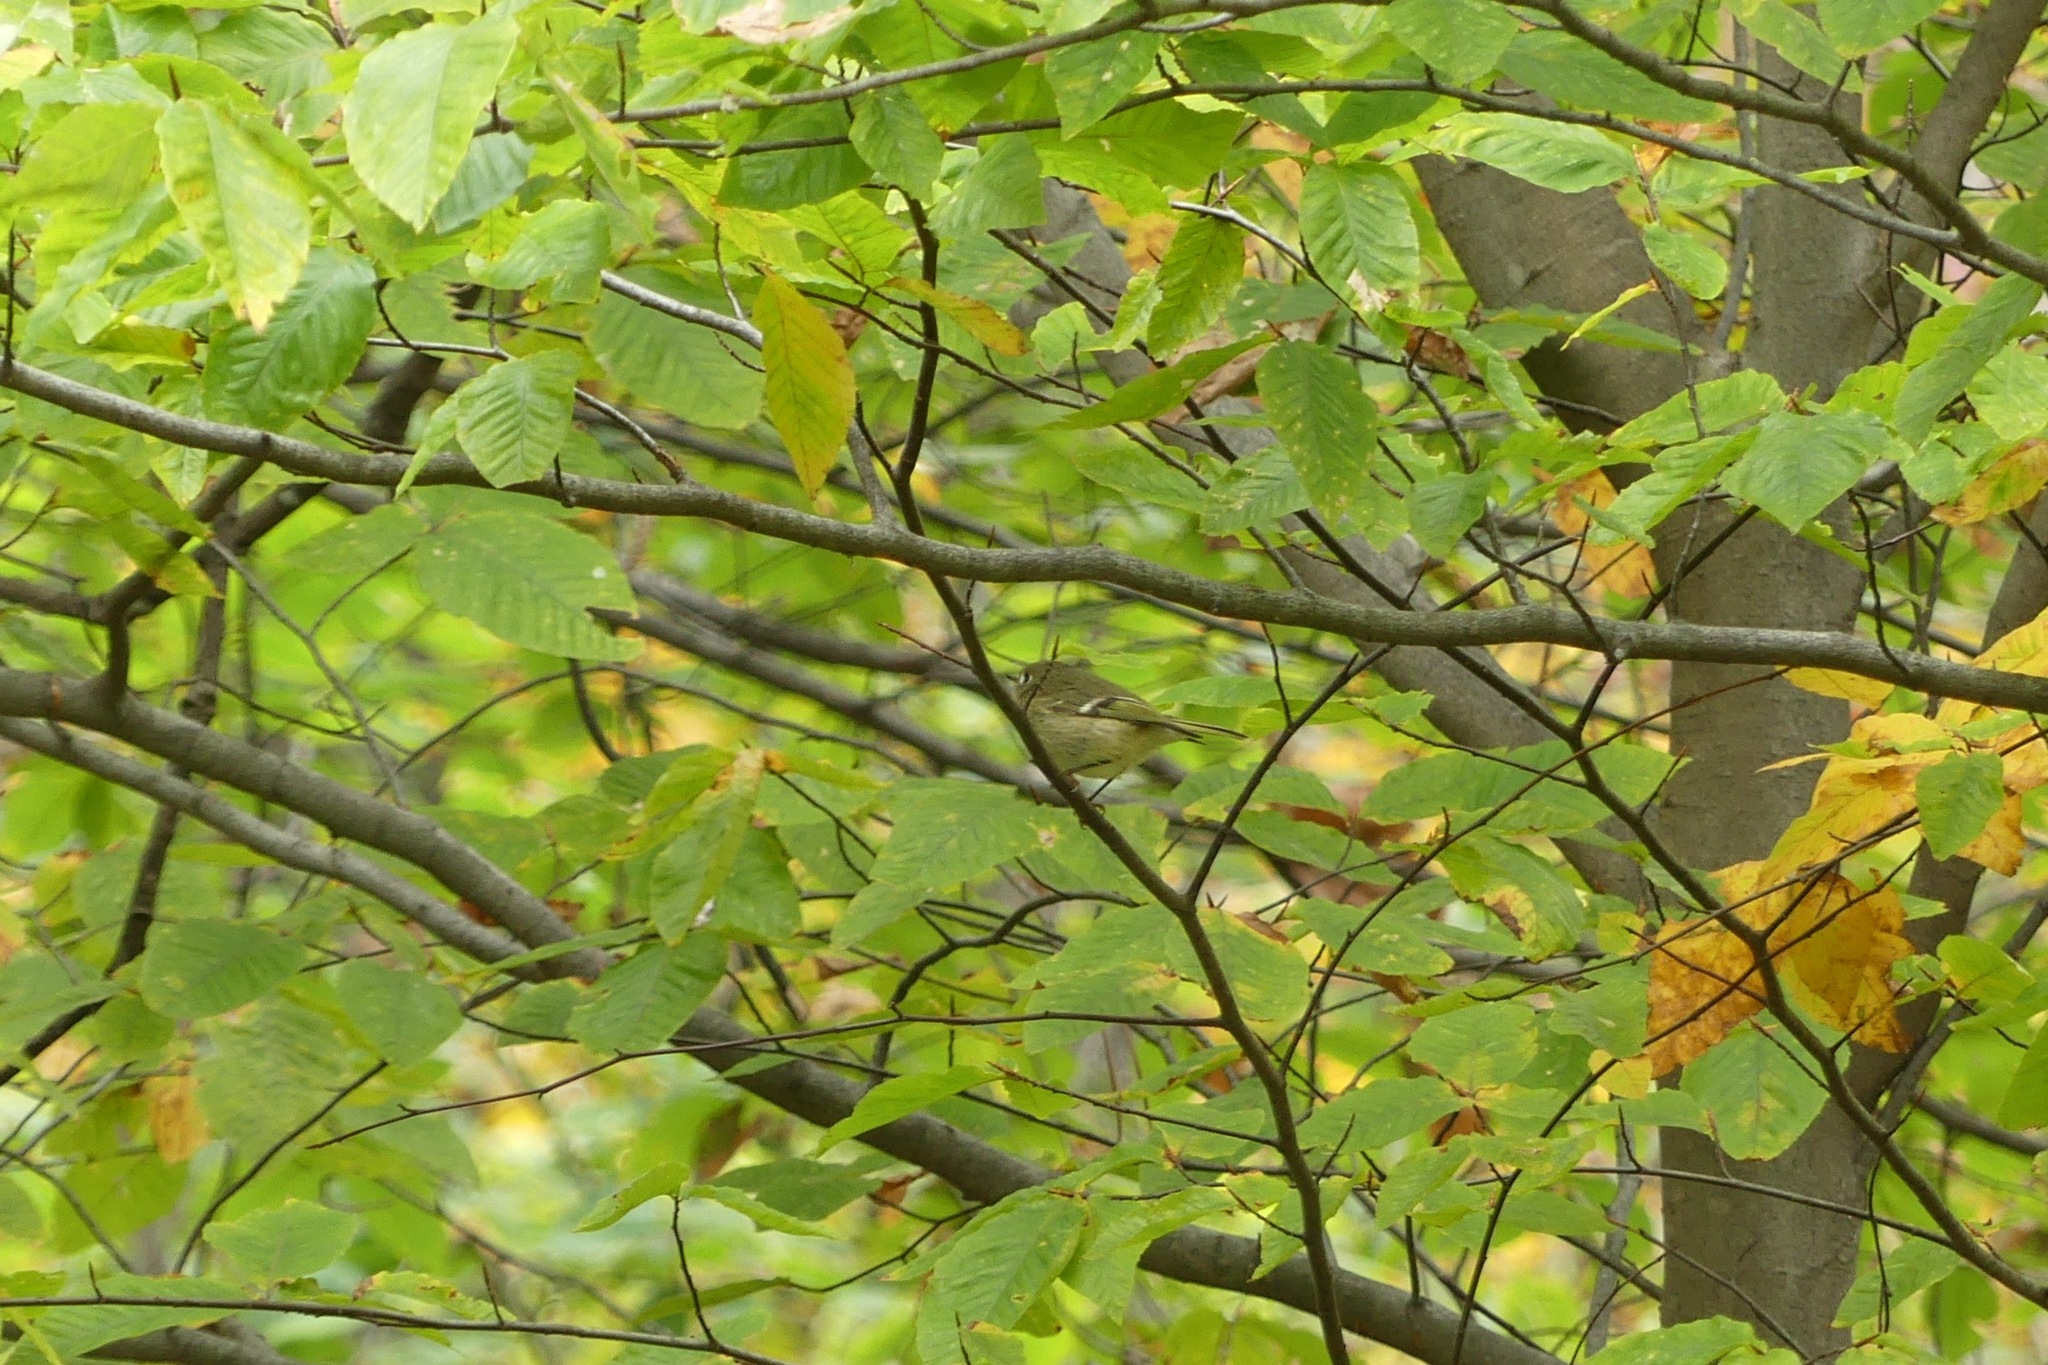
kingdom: Animalia
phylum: Chordata
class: Aves
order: Passeriformes
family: Regulidae
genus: Regulus
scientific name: Regulus calendula
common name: Ruby-crowned kinglet
